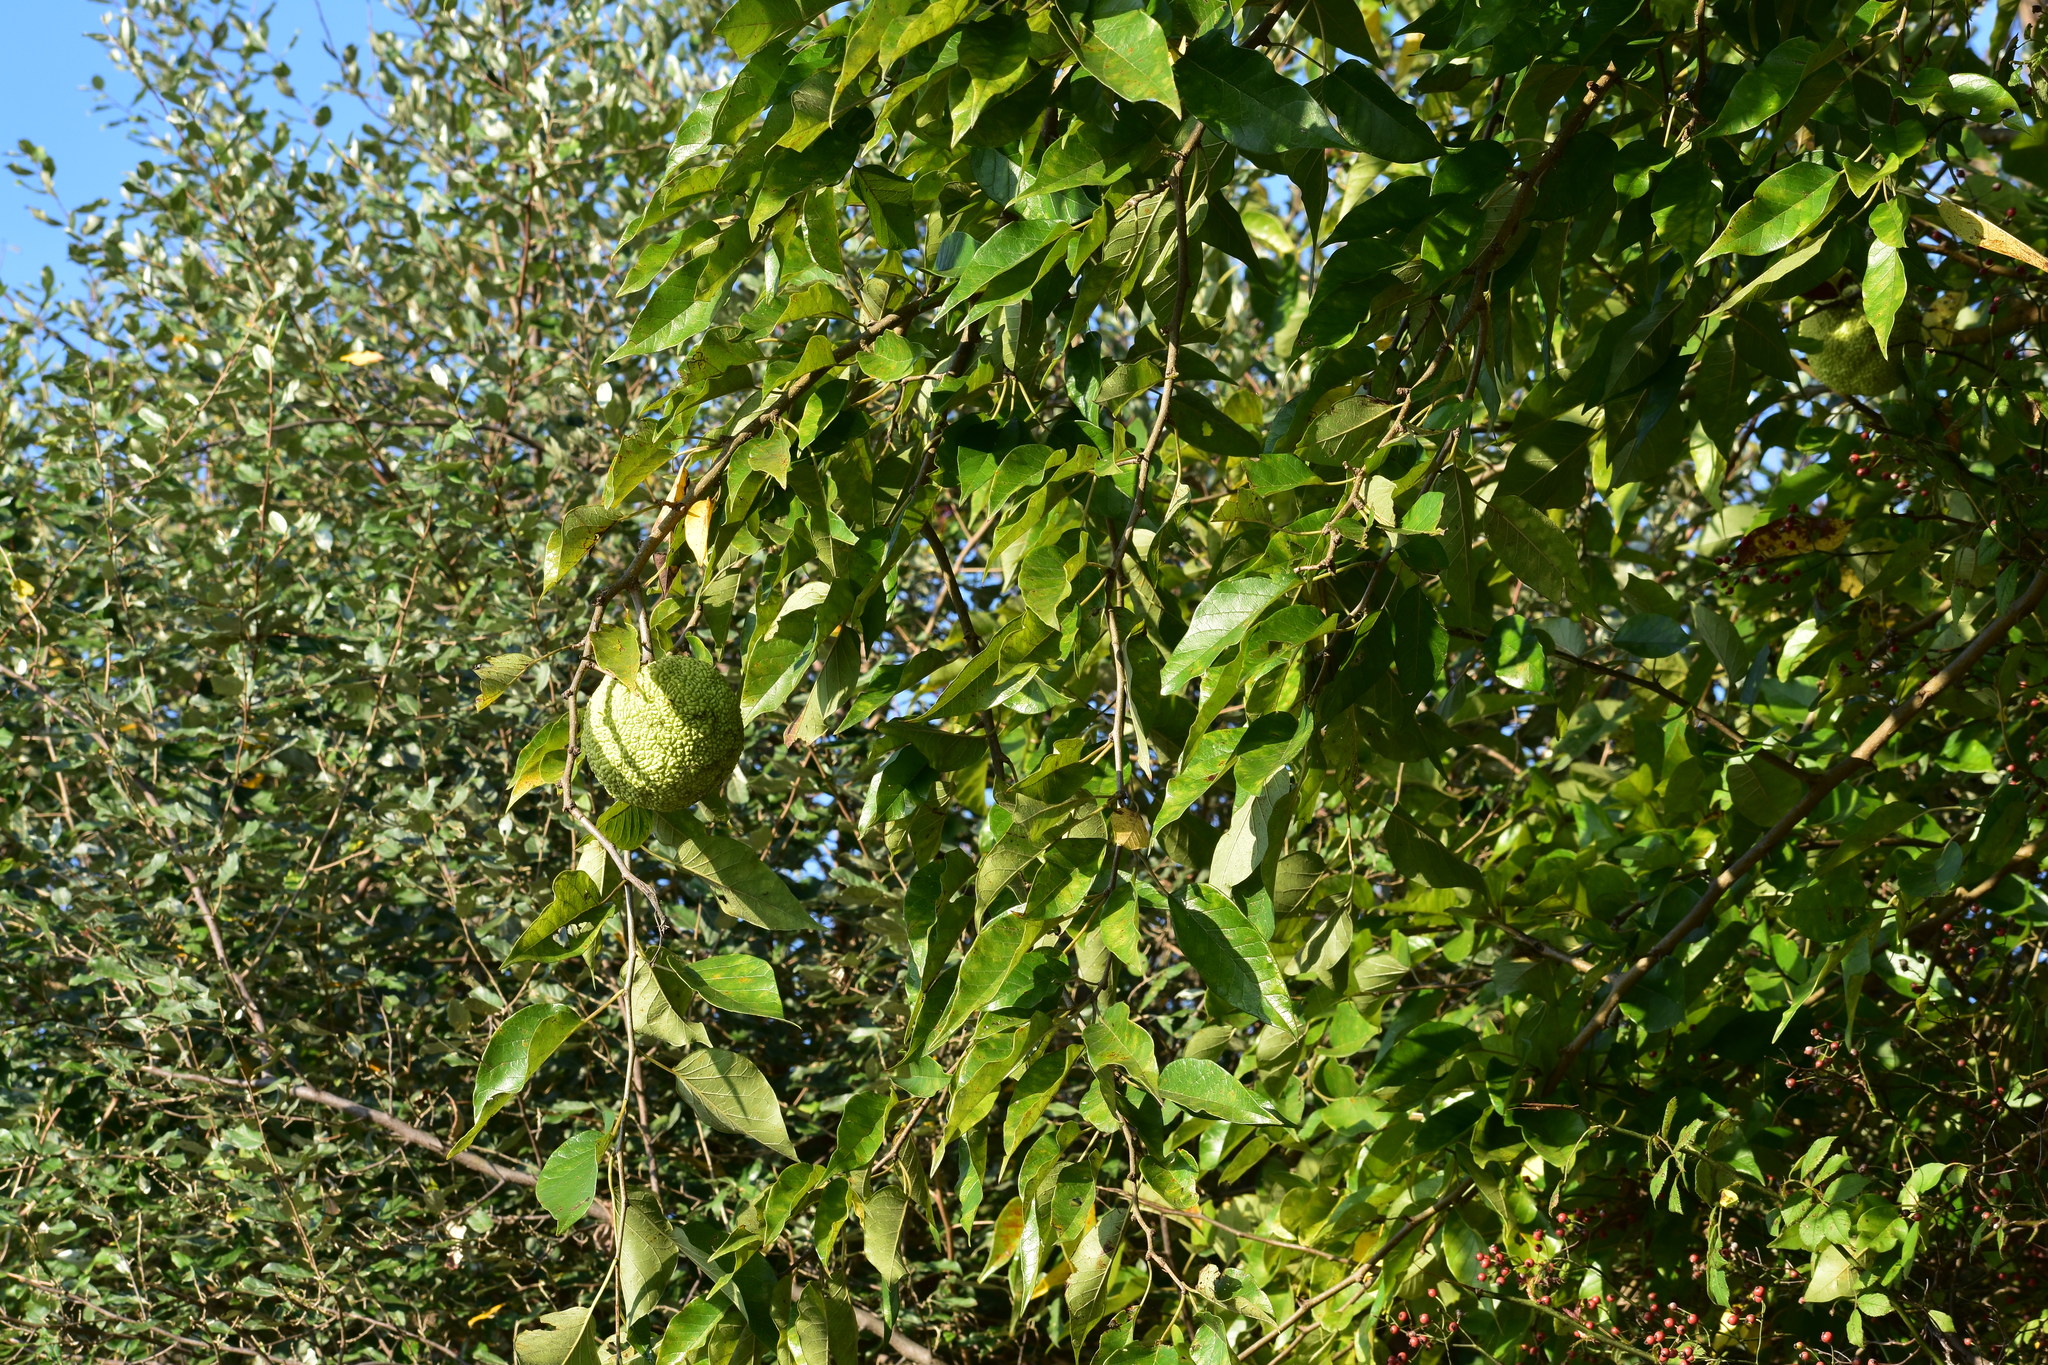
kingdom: Plantae
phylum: Tracheophyta
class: Magnoliopsida
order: Rosales
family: Moraceae
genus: Maclura
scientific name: Maclura pomifera
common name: Osage-orange
